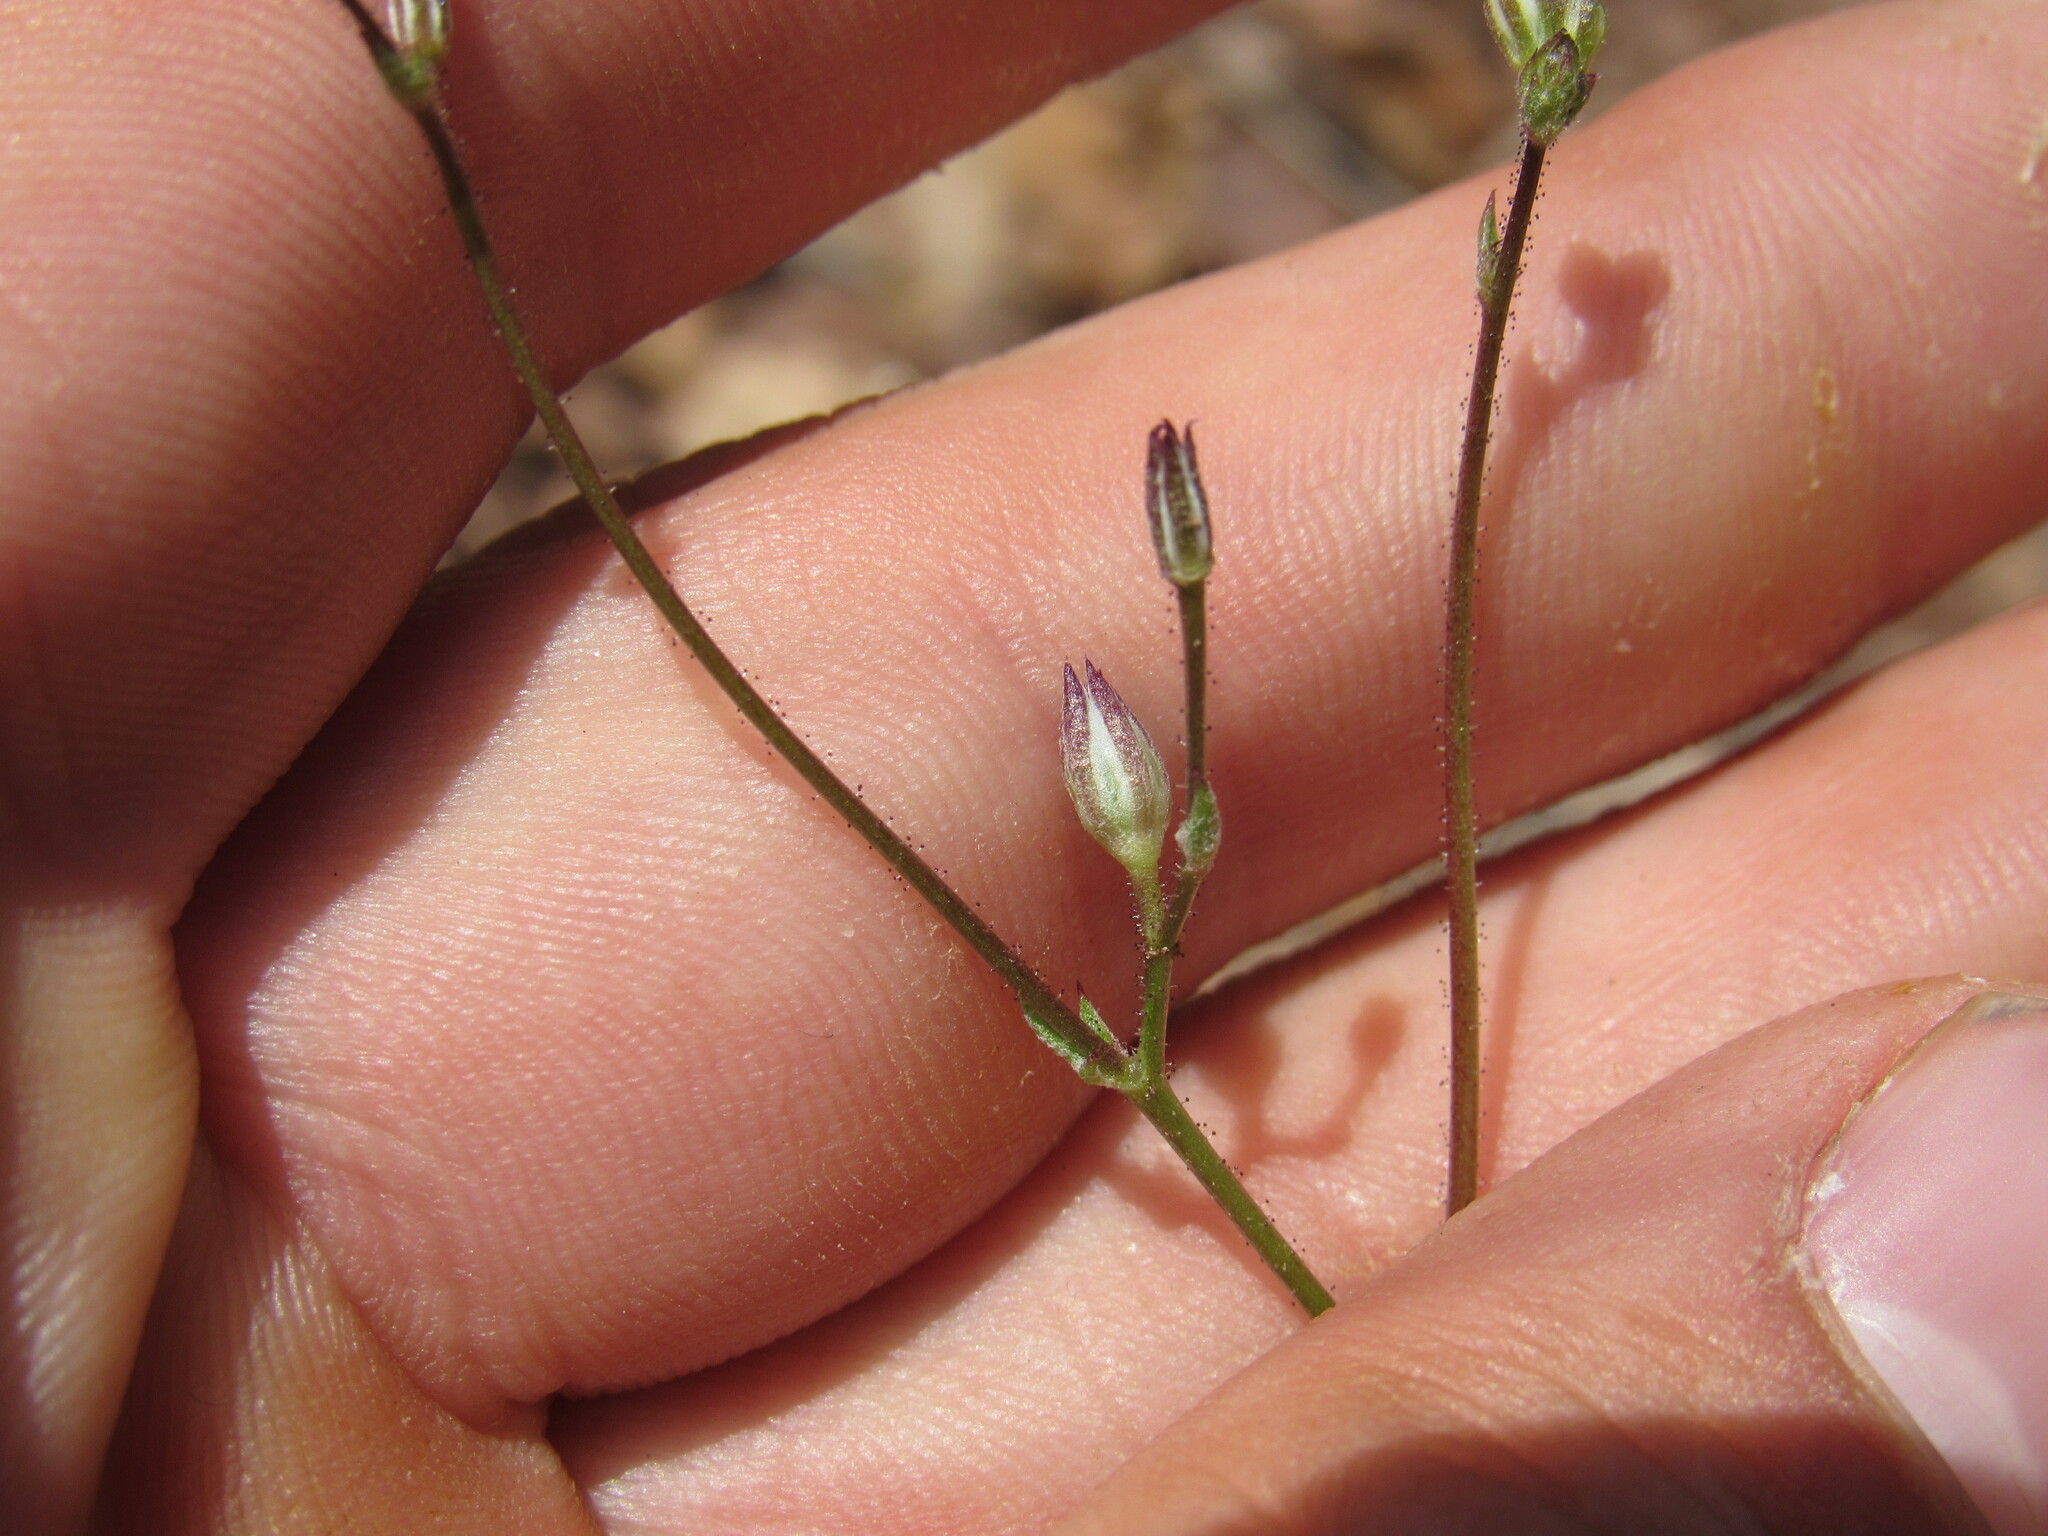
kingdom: Plantae
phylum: Tracheophyta
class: Magnoliopsida
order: Ericales
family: Polemoniaceae
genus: Gilia
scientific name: Gilia clokeyi
